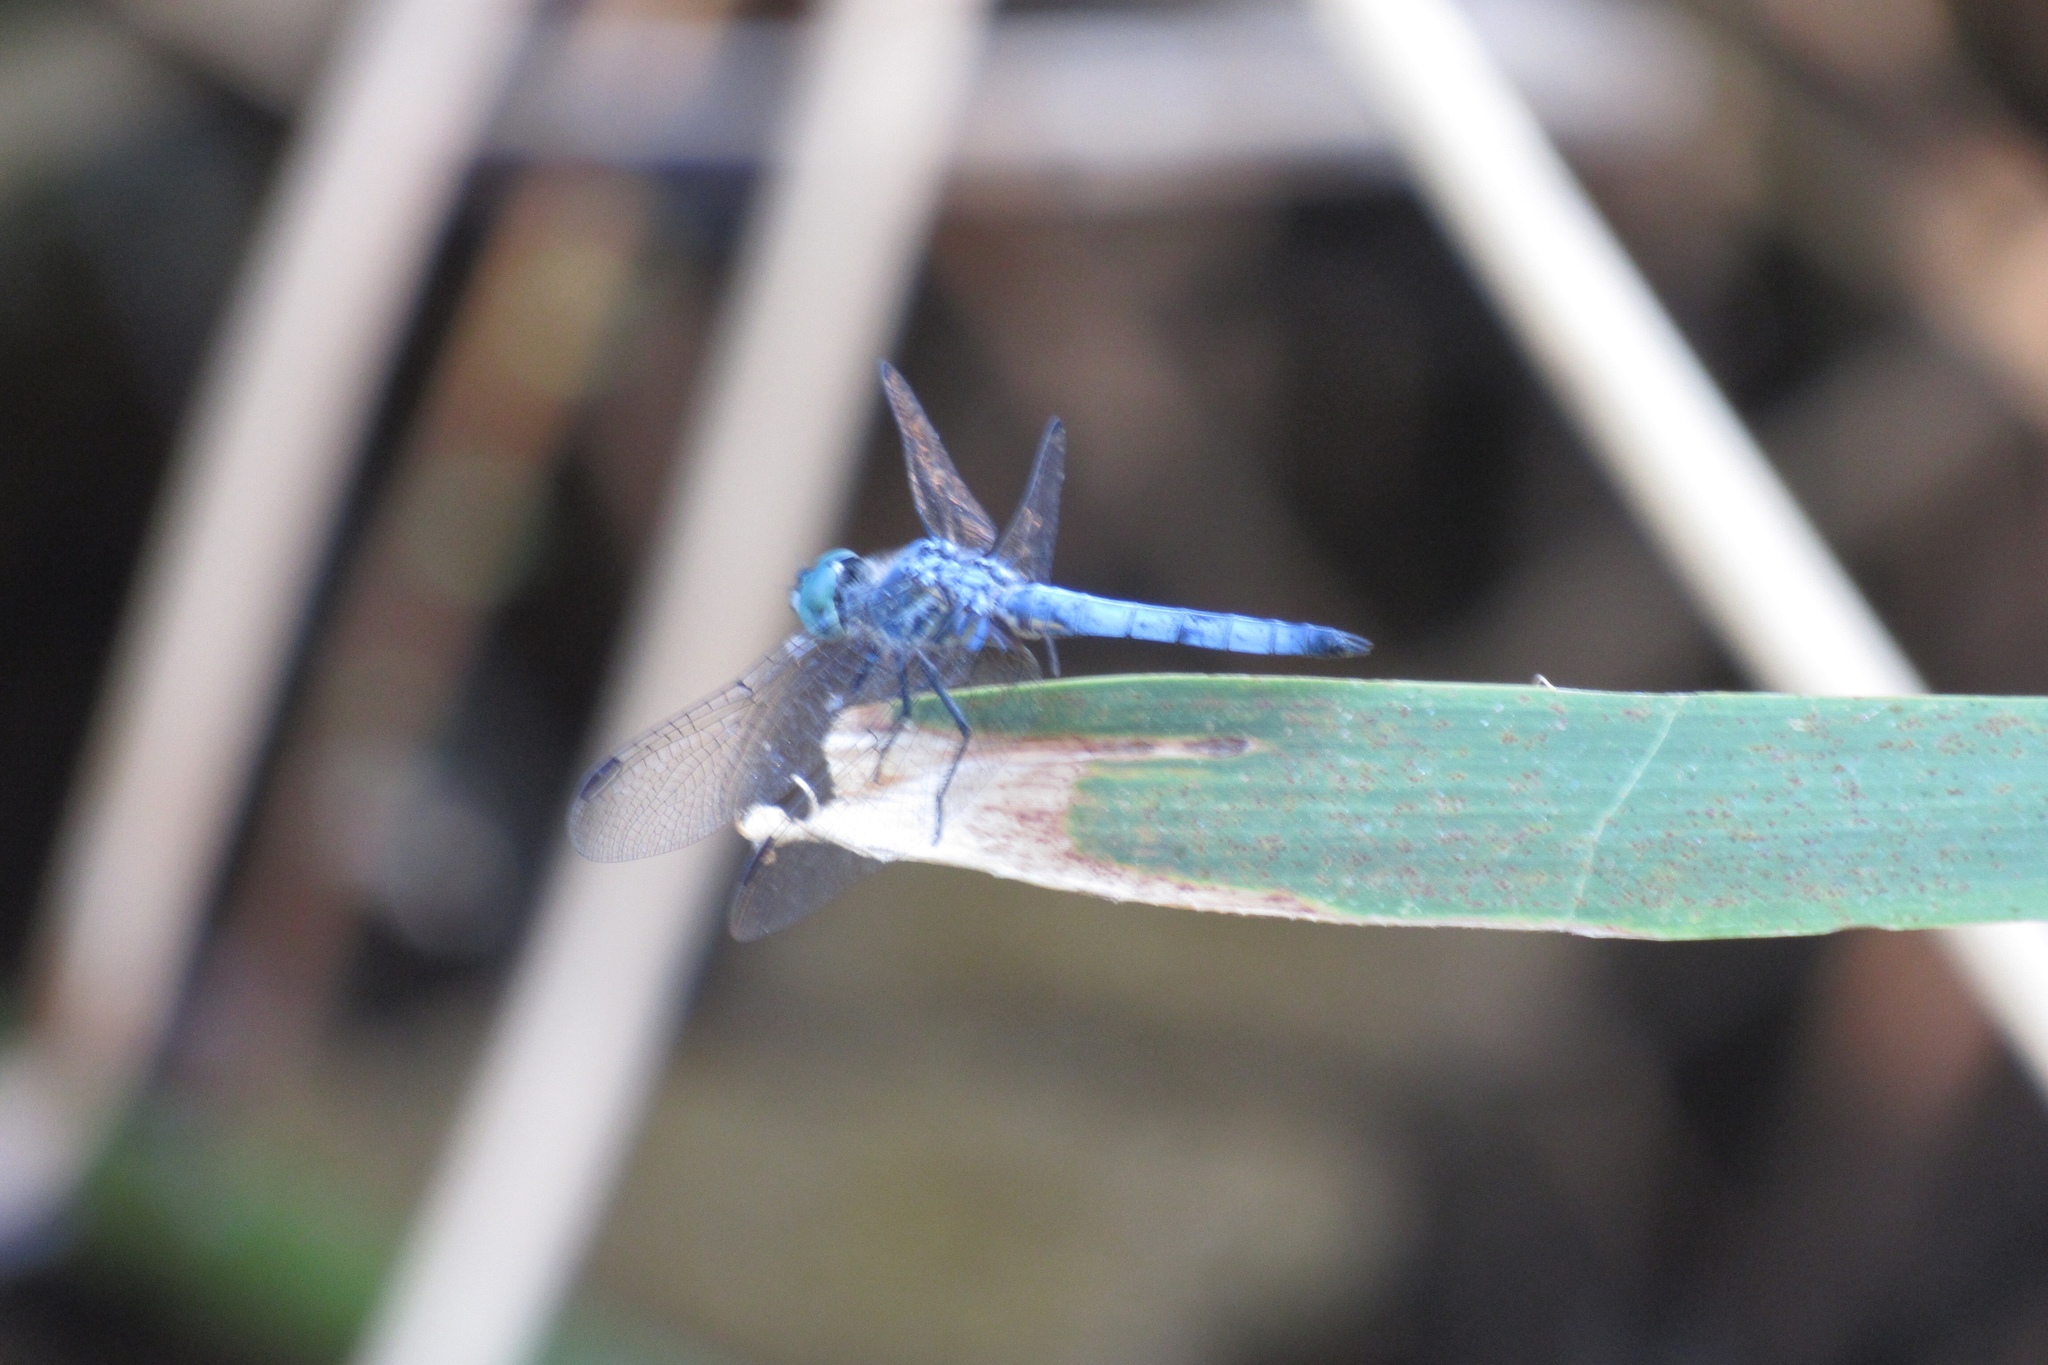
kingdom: Animalia
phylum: Arthropoda
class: Insecta
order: Odonata
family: Libellulidae
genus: Pachydiplax
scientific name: Pachydiplax longipennis
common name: Blue dasher
